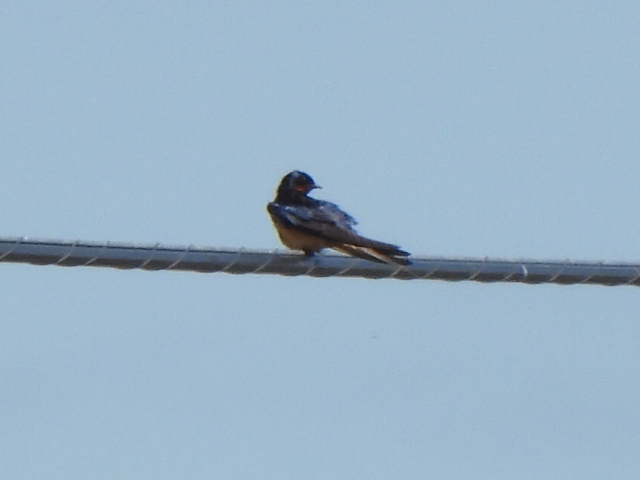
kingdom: Animalia
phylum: Chordata
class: Aves
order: Passeriformes
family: Hirundinidae
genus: Hirundo
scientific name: Hirundo rustica
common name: Barn swallow
